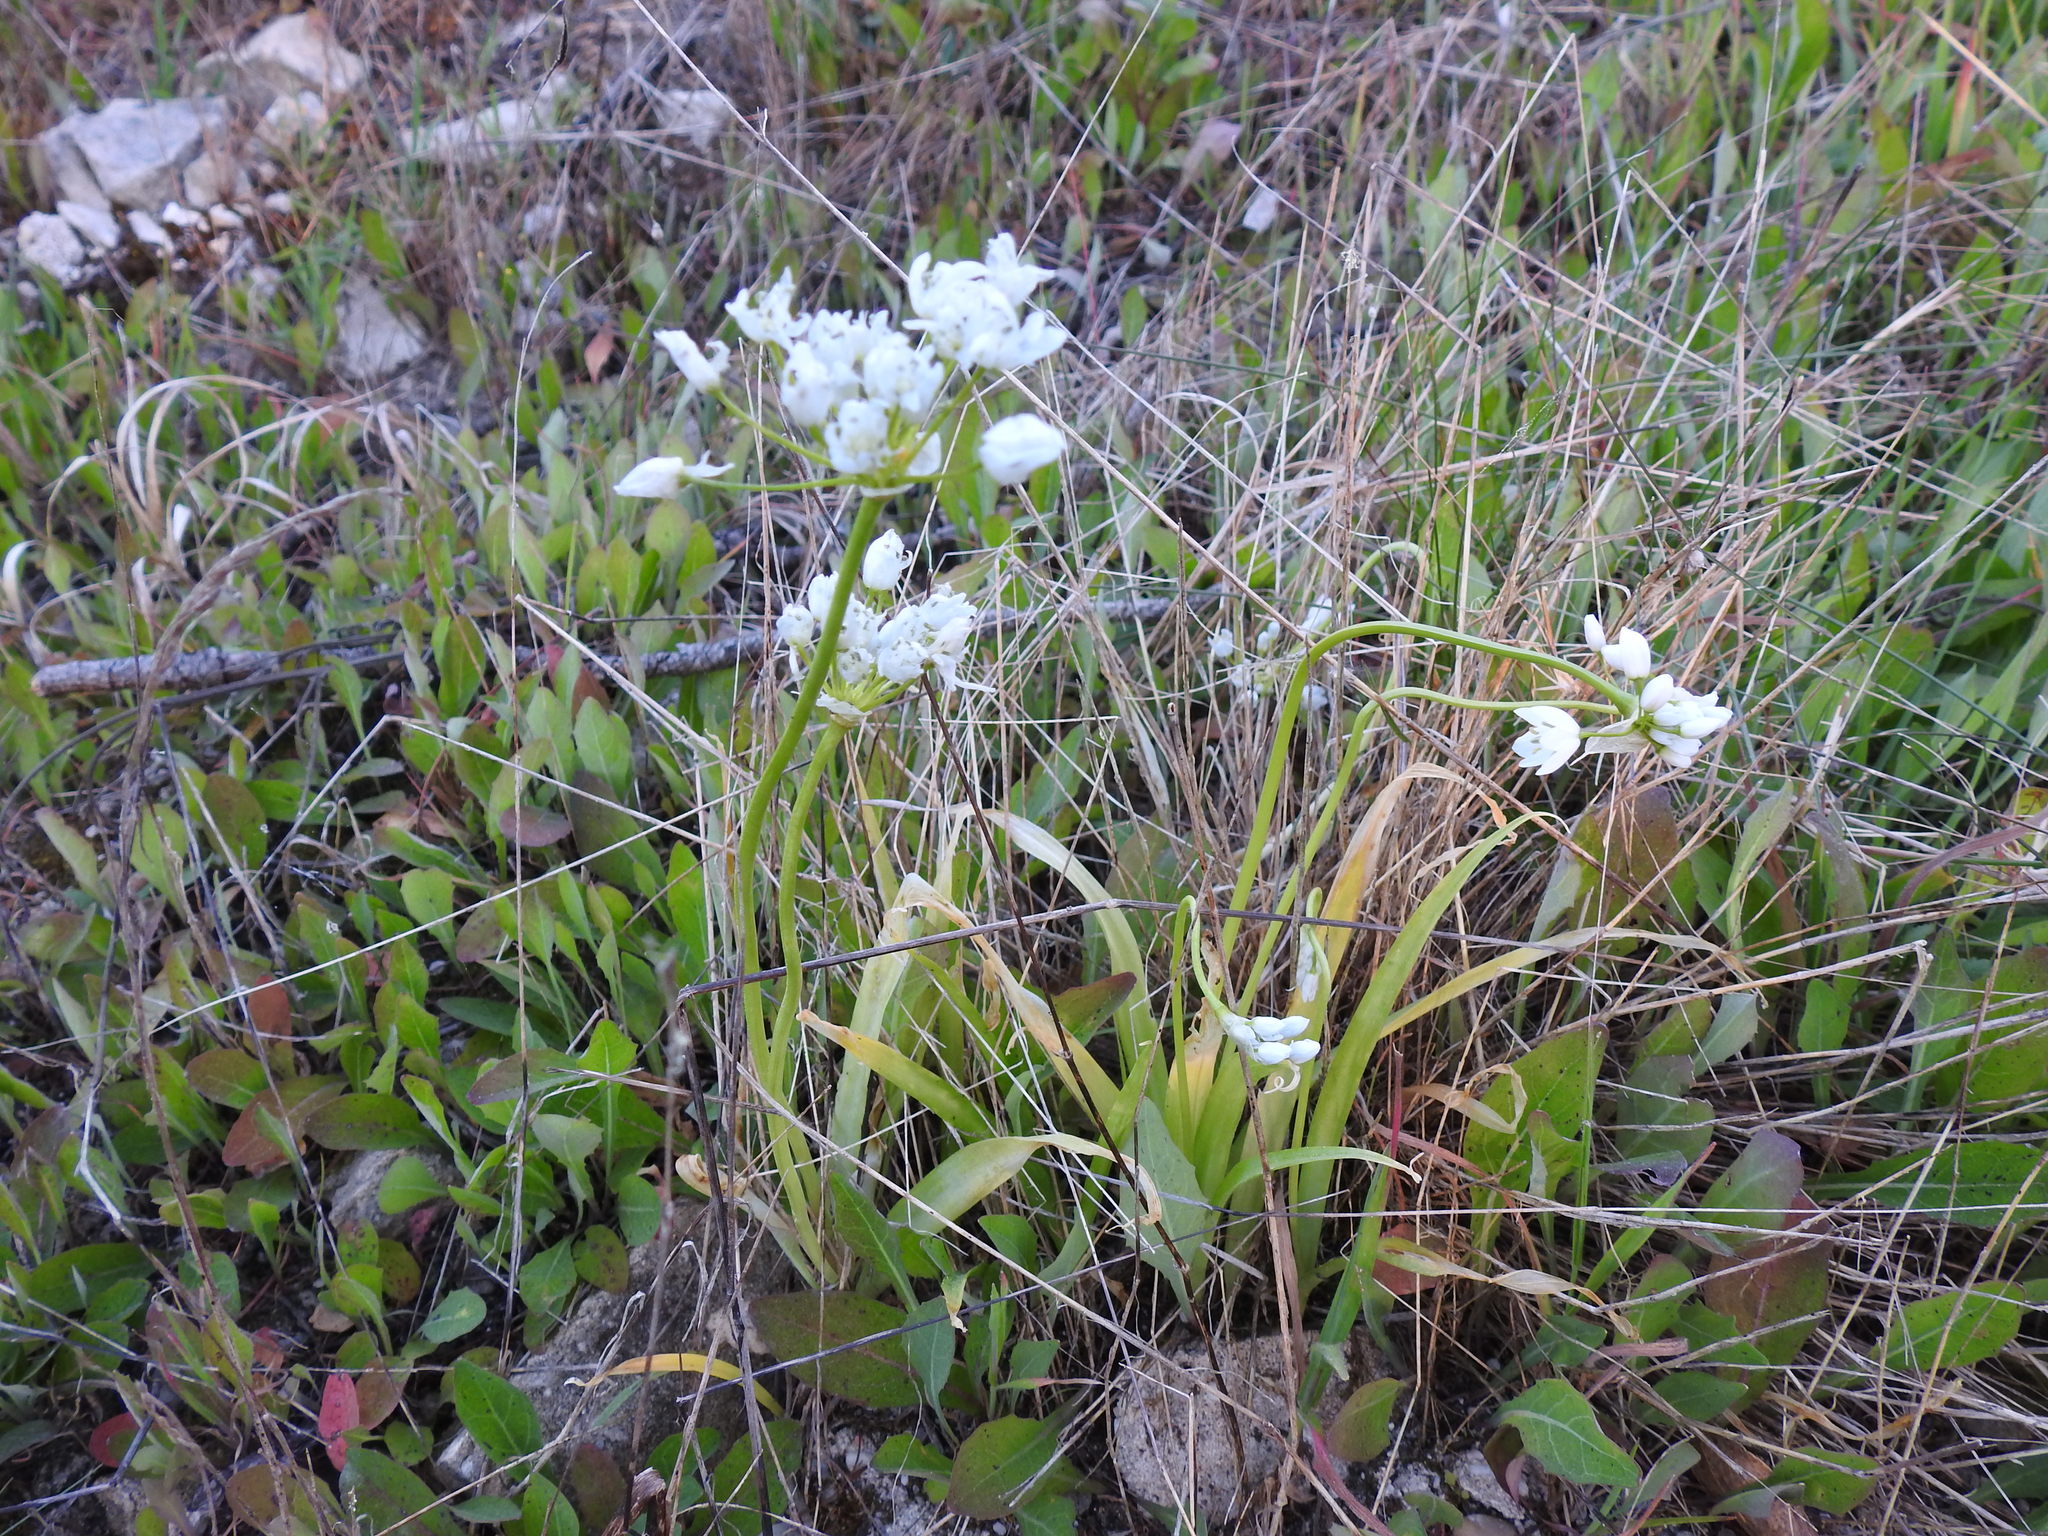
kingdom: Plantae
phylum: Tracheophyta
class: Liliopsida
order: Asparagales
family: Amaryllidaceae
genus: Allium
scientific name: Allium neapolitanum
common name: Neapolitan garlic
